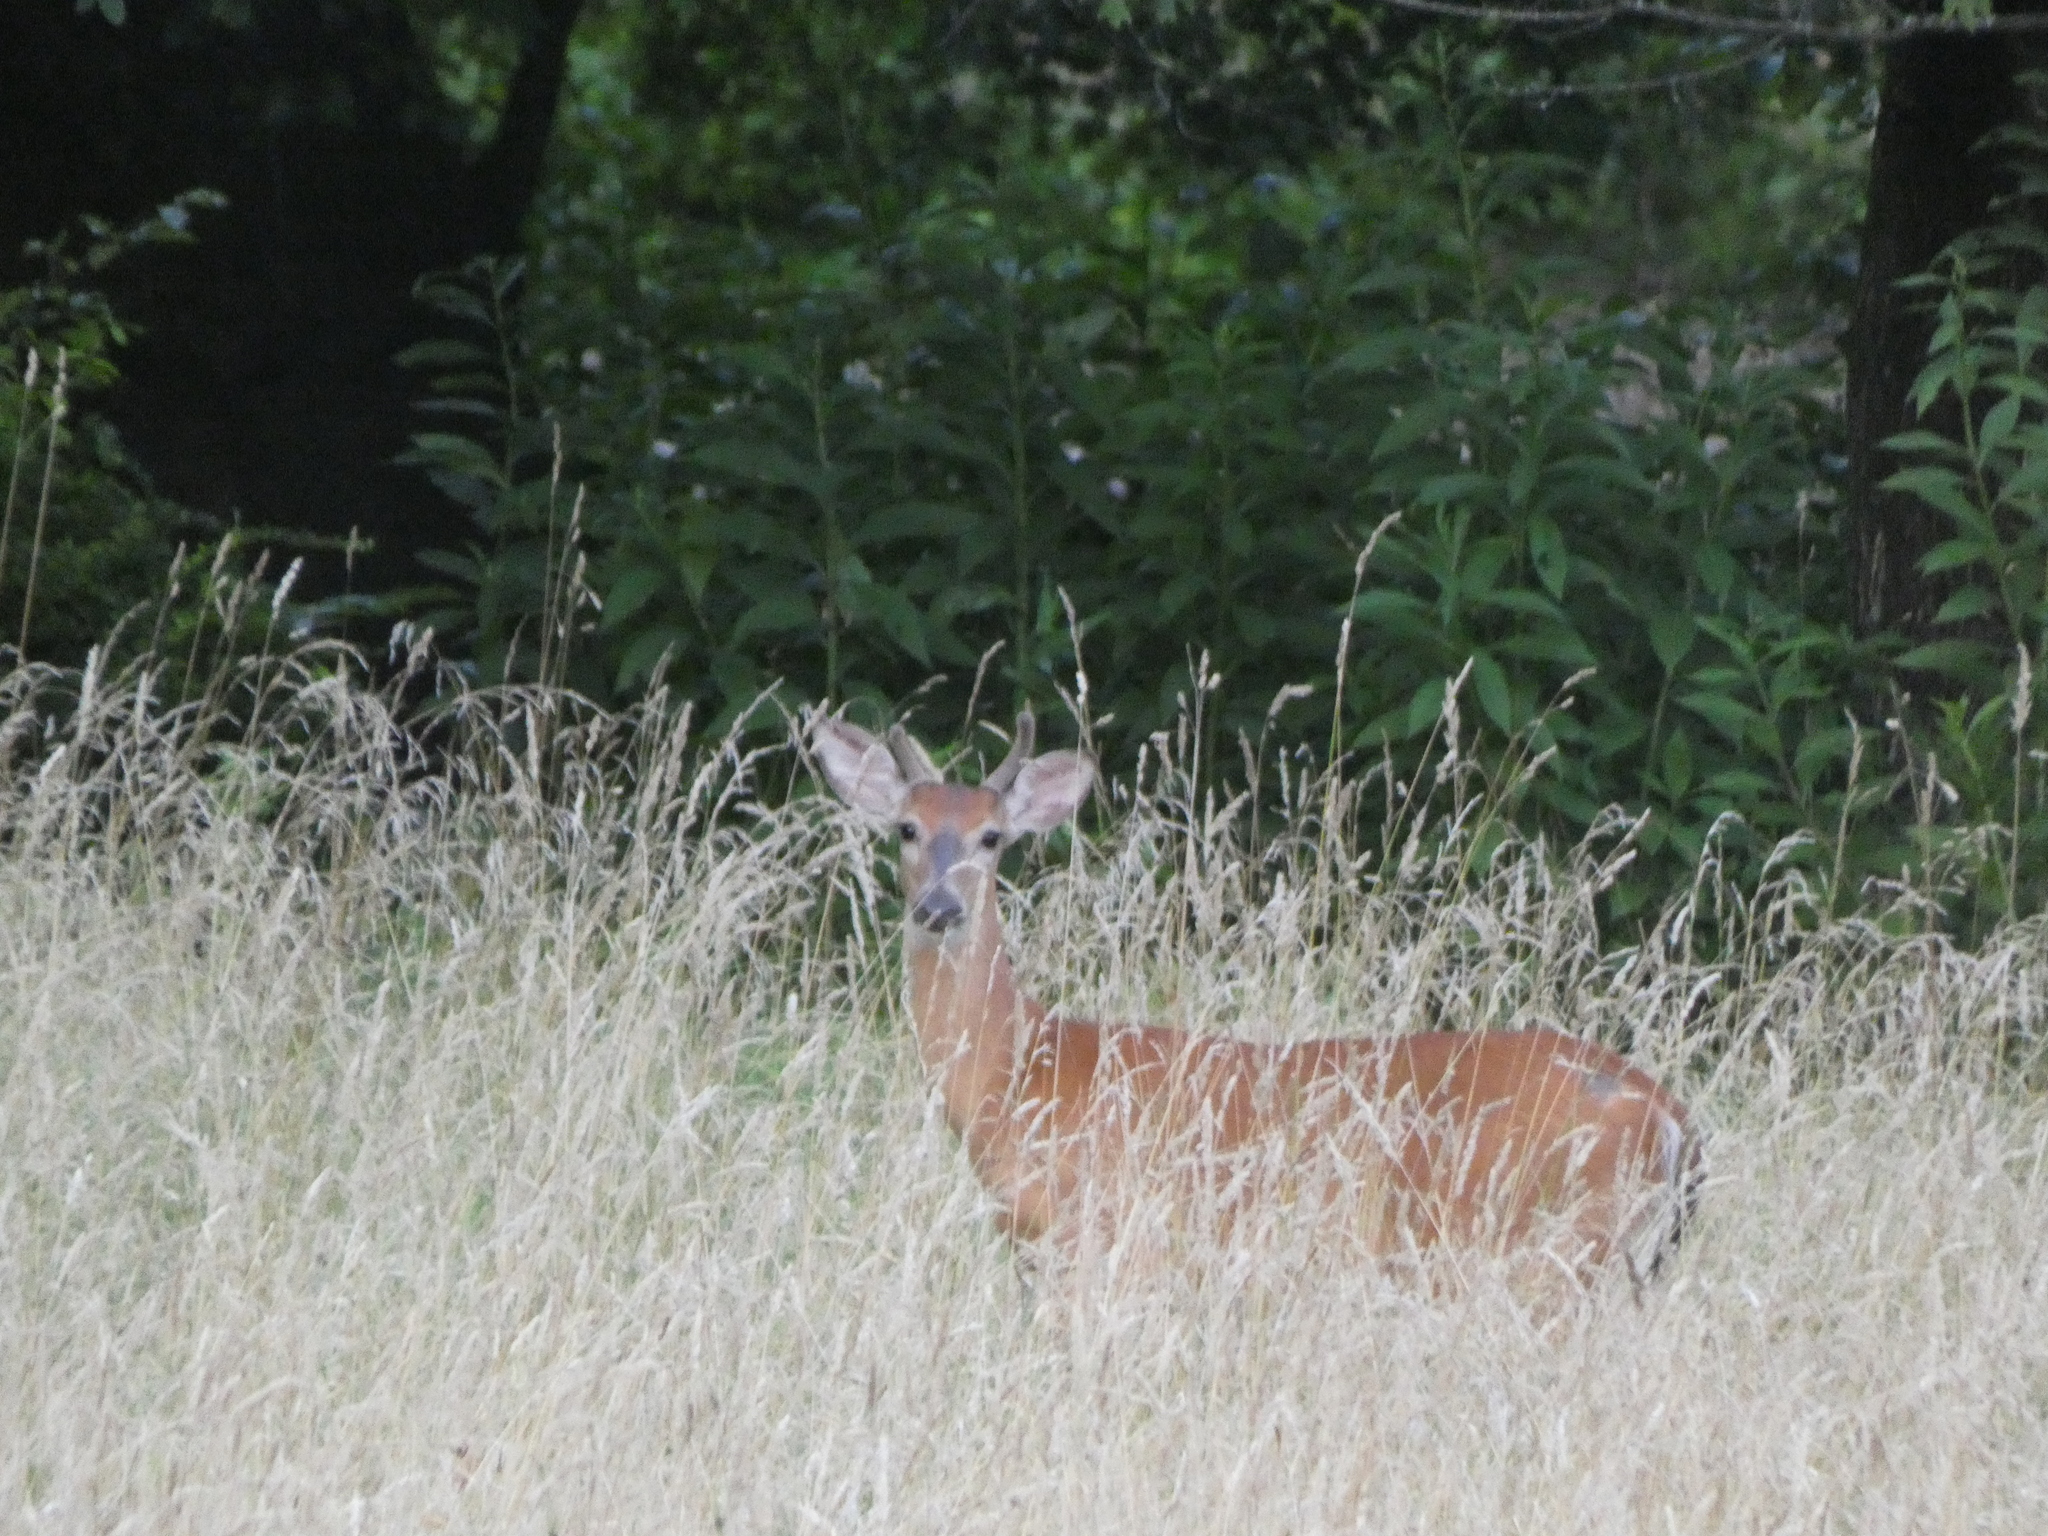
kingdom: Animalia
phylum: Chordata
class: Mammalia
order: Artiodactyla
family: Cervidae
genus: Odocoileus
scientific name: Odocoileus virginianus
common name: White-tailed deer
